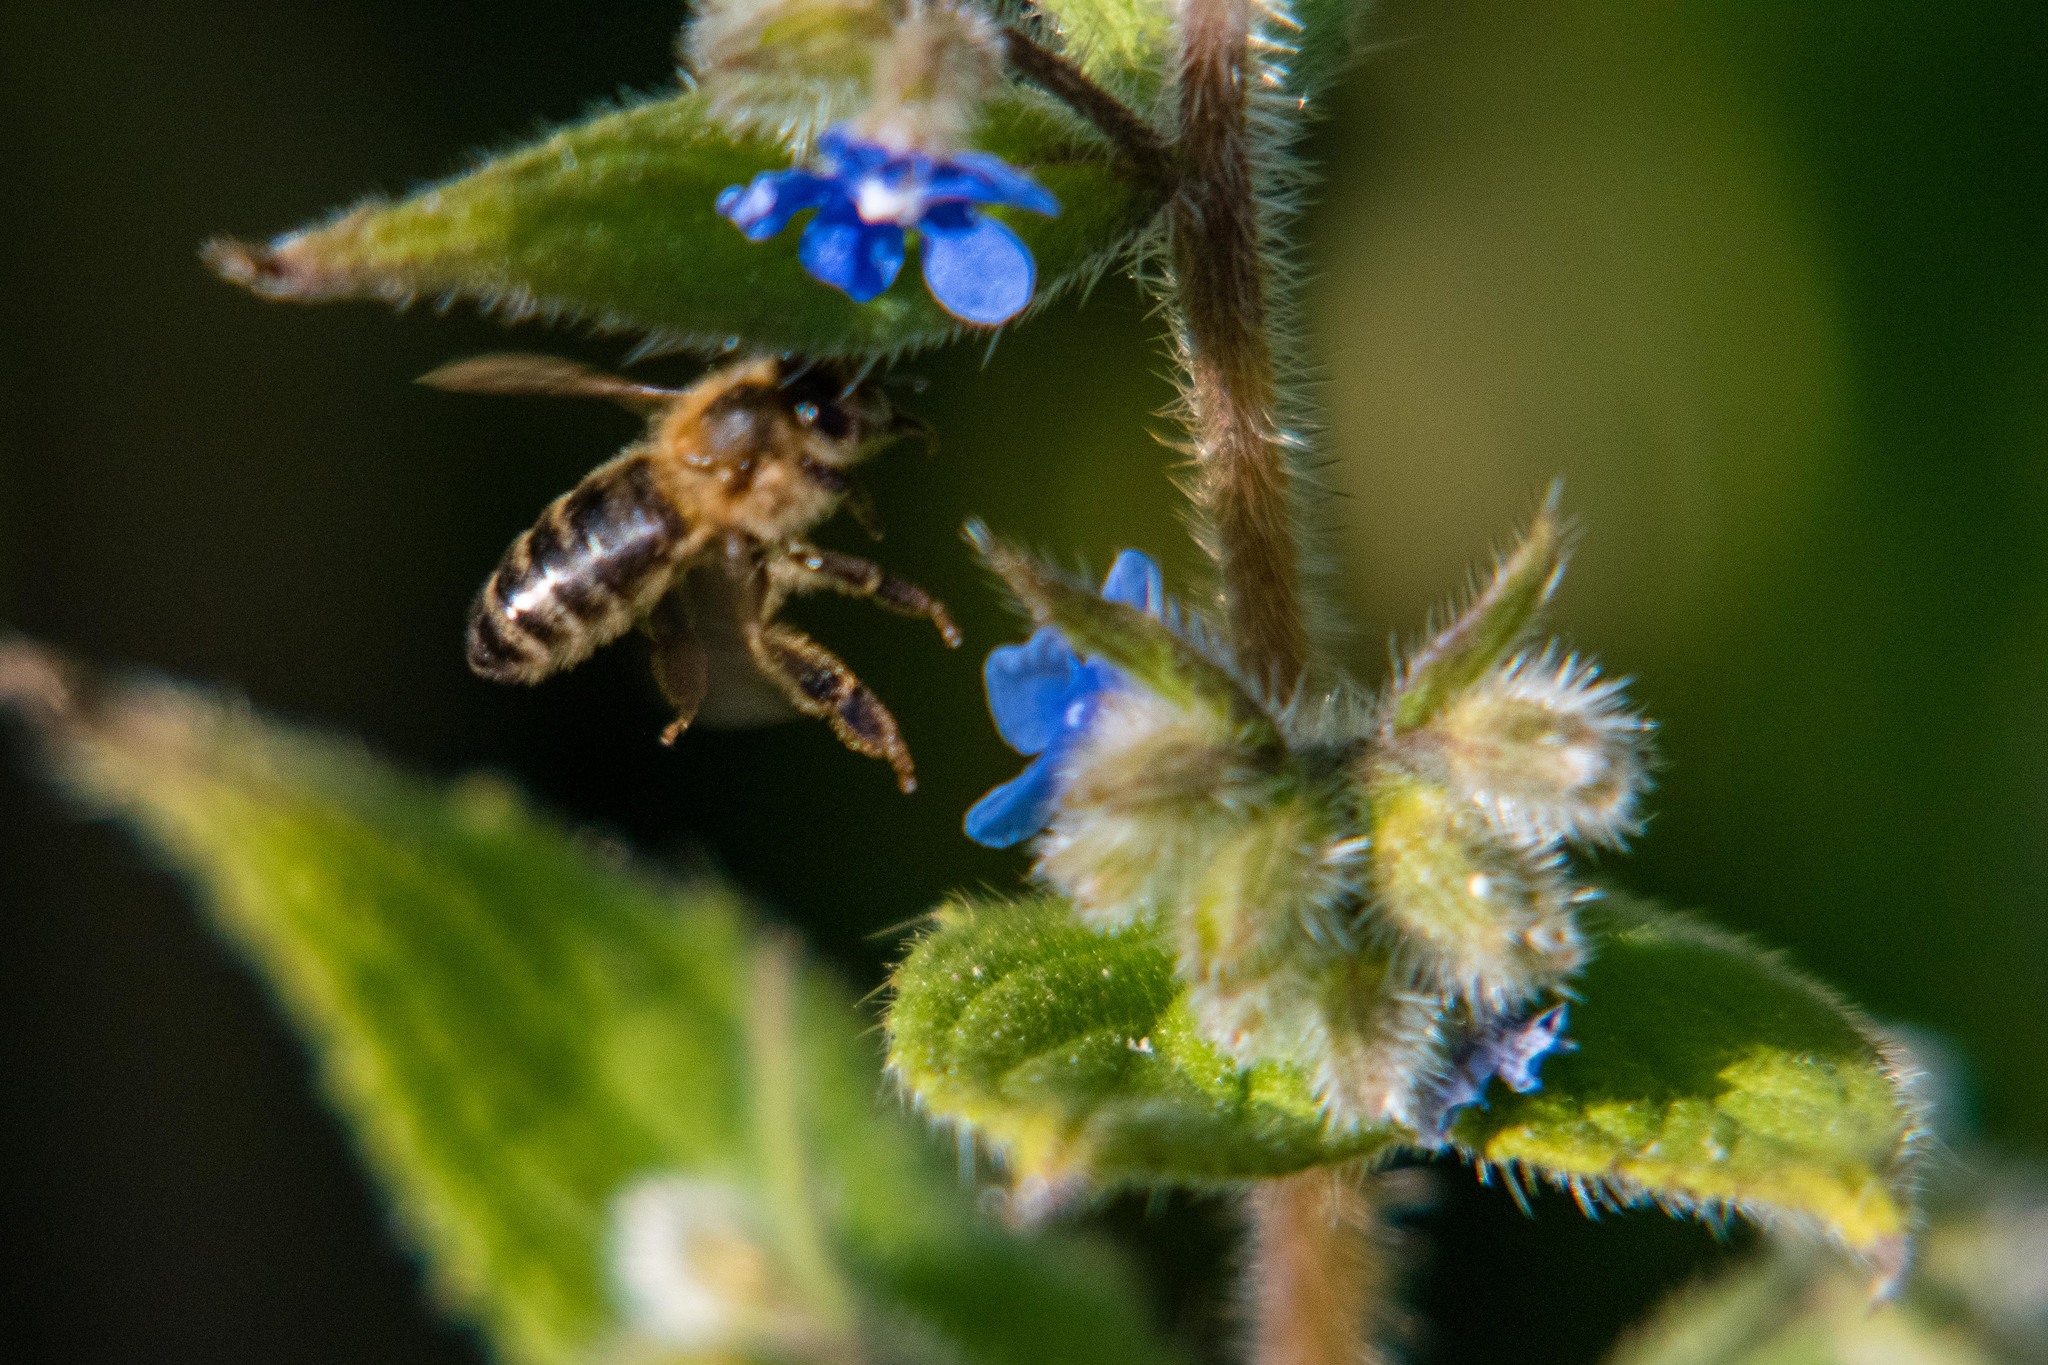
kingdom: Animalia
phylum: Arthropoda
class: Insecta
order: Hymenoptera
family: Apidae
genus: Apis
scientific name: Apis mellifera
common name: Honey bee
